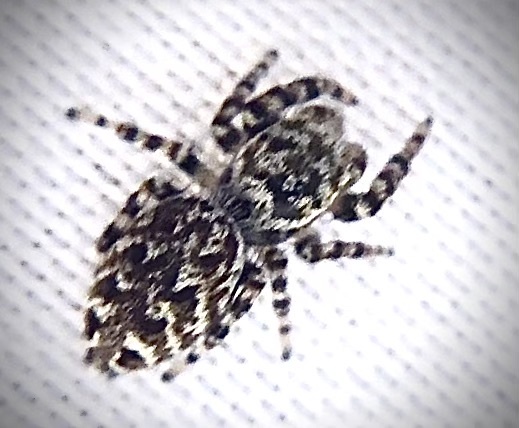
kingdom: Animalia
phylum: Arthropoda
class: Arachnida
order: Araneae
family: Salticidae
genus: Pelegrina
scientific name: Pelegrina galathea
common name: Jumping spiders
